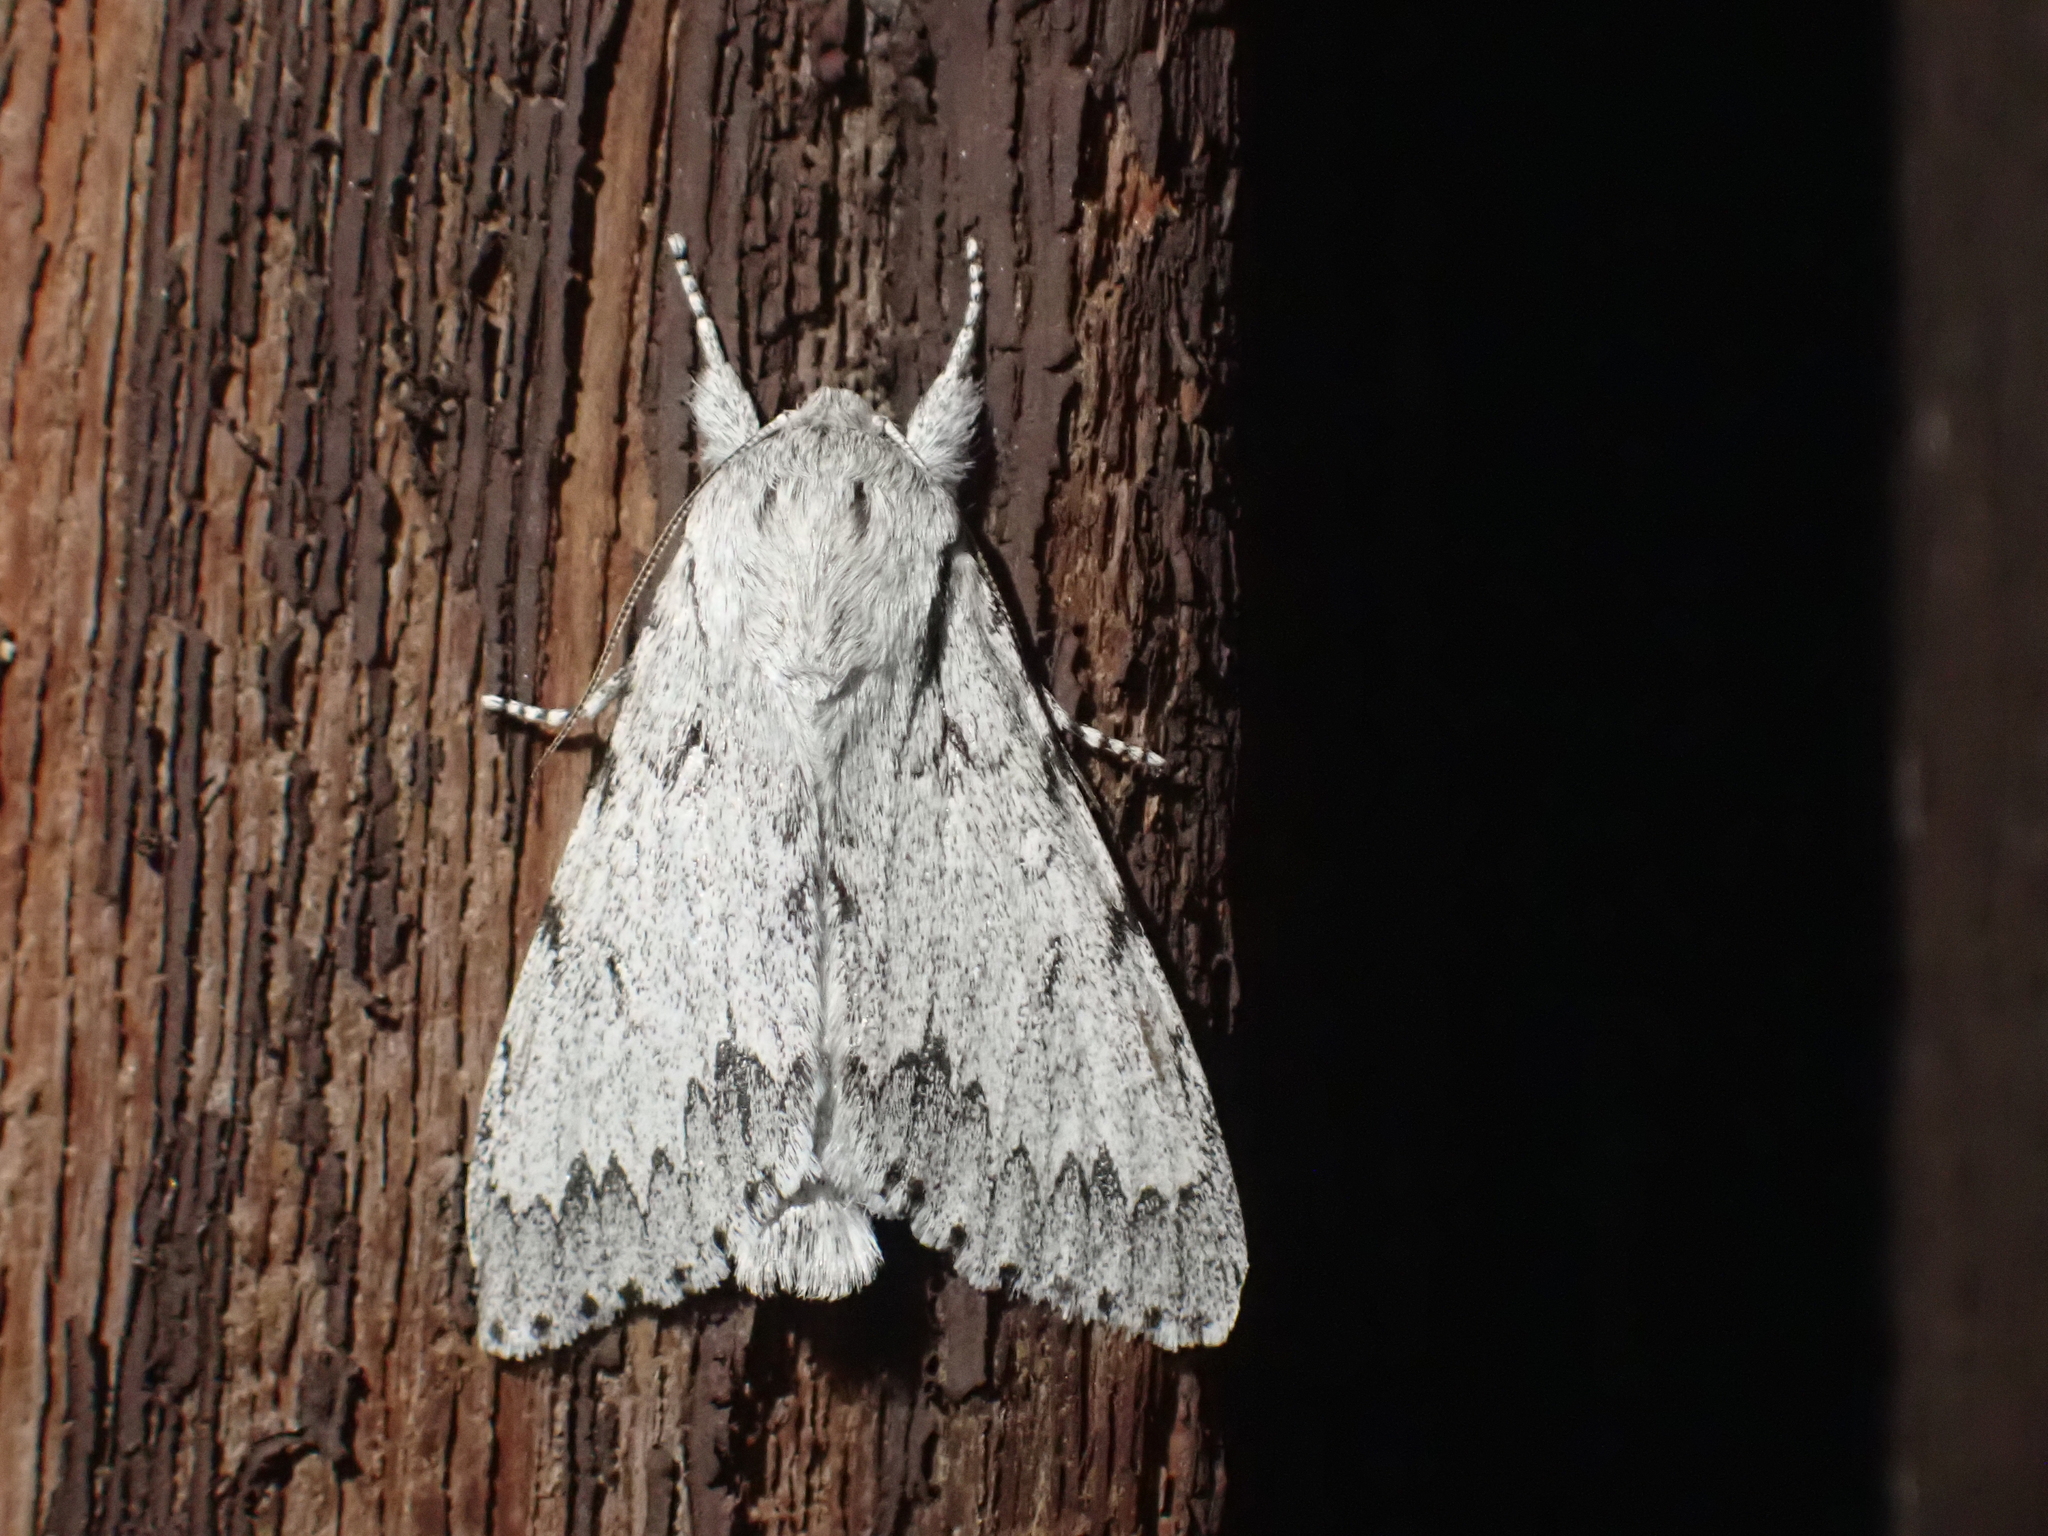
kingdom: Animalia
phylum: Arthropoda
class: Insecta
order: Lepidoptera
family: Noctuidae
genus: Acronicta
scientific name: Acronicta lepusculina
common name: Cottonwood dagger
